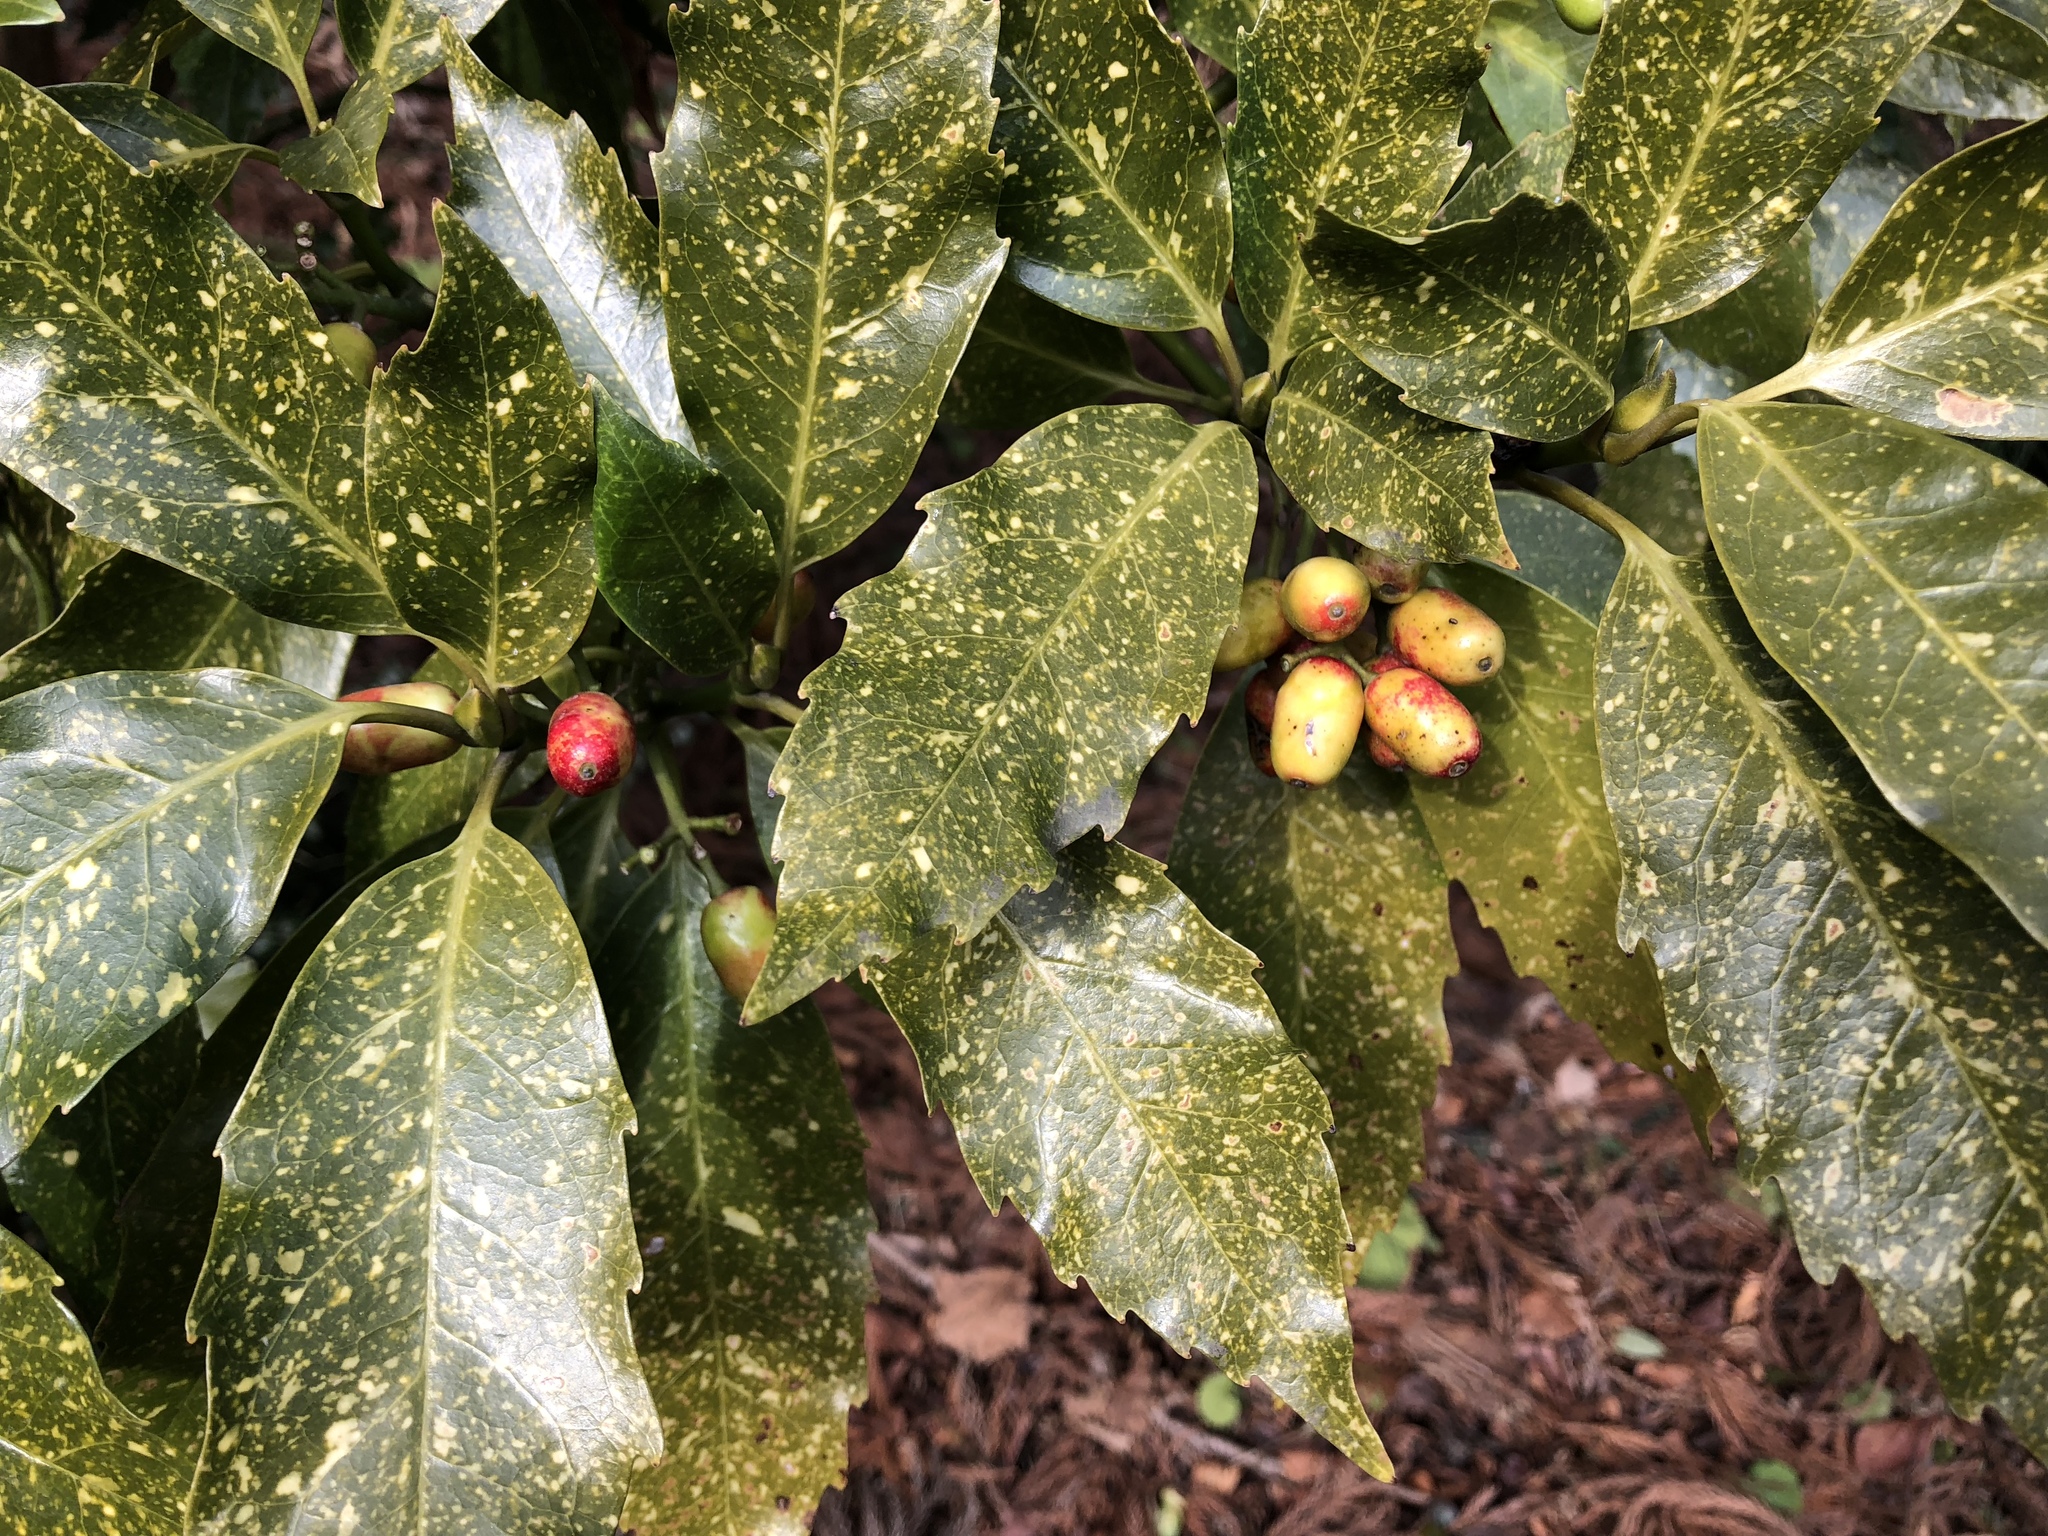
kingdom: Plantae
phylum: Tracheophyta
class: Magnoliopsida
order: Garryales
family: Garryaceae
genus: Aucuba
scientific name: Aucuba japonica
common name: Spotted-laurel
